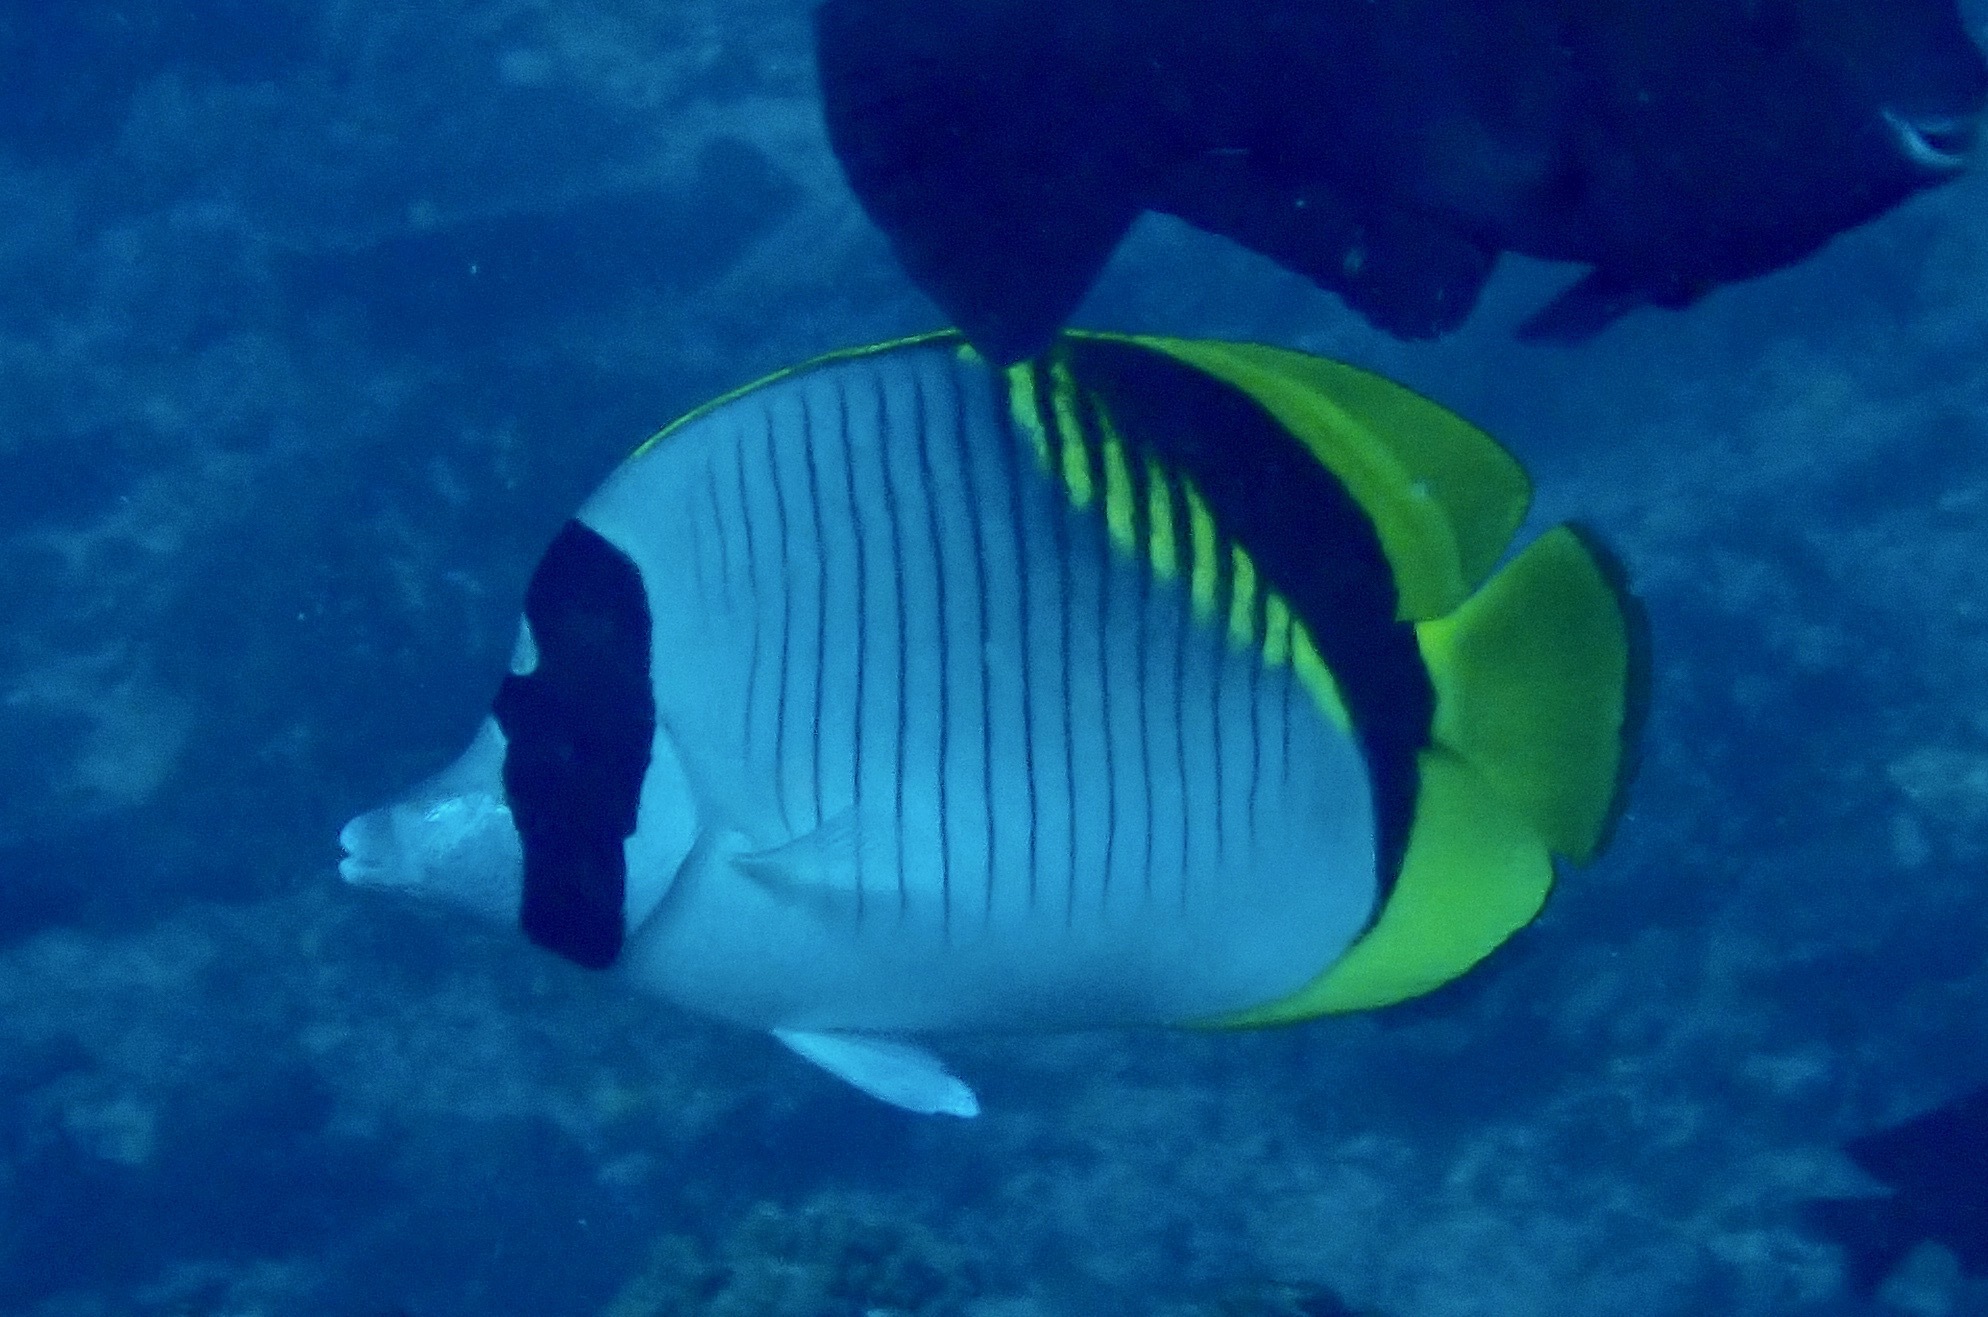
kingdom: Animalia
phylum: Chordata
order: Perciformes
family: Chaetodontidae
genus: Chaetodon
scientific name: Chaetodon lineolatus
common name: Lined butterflyfish
